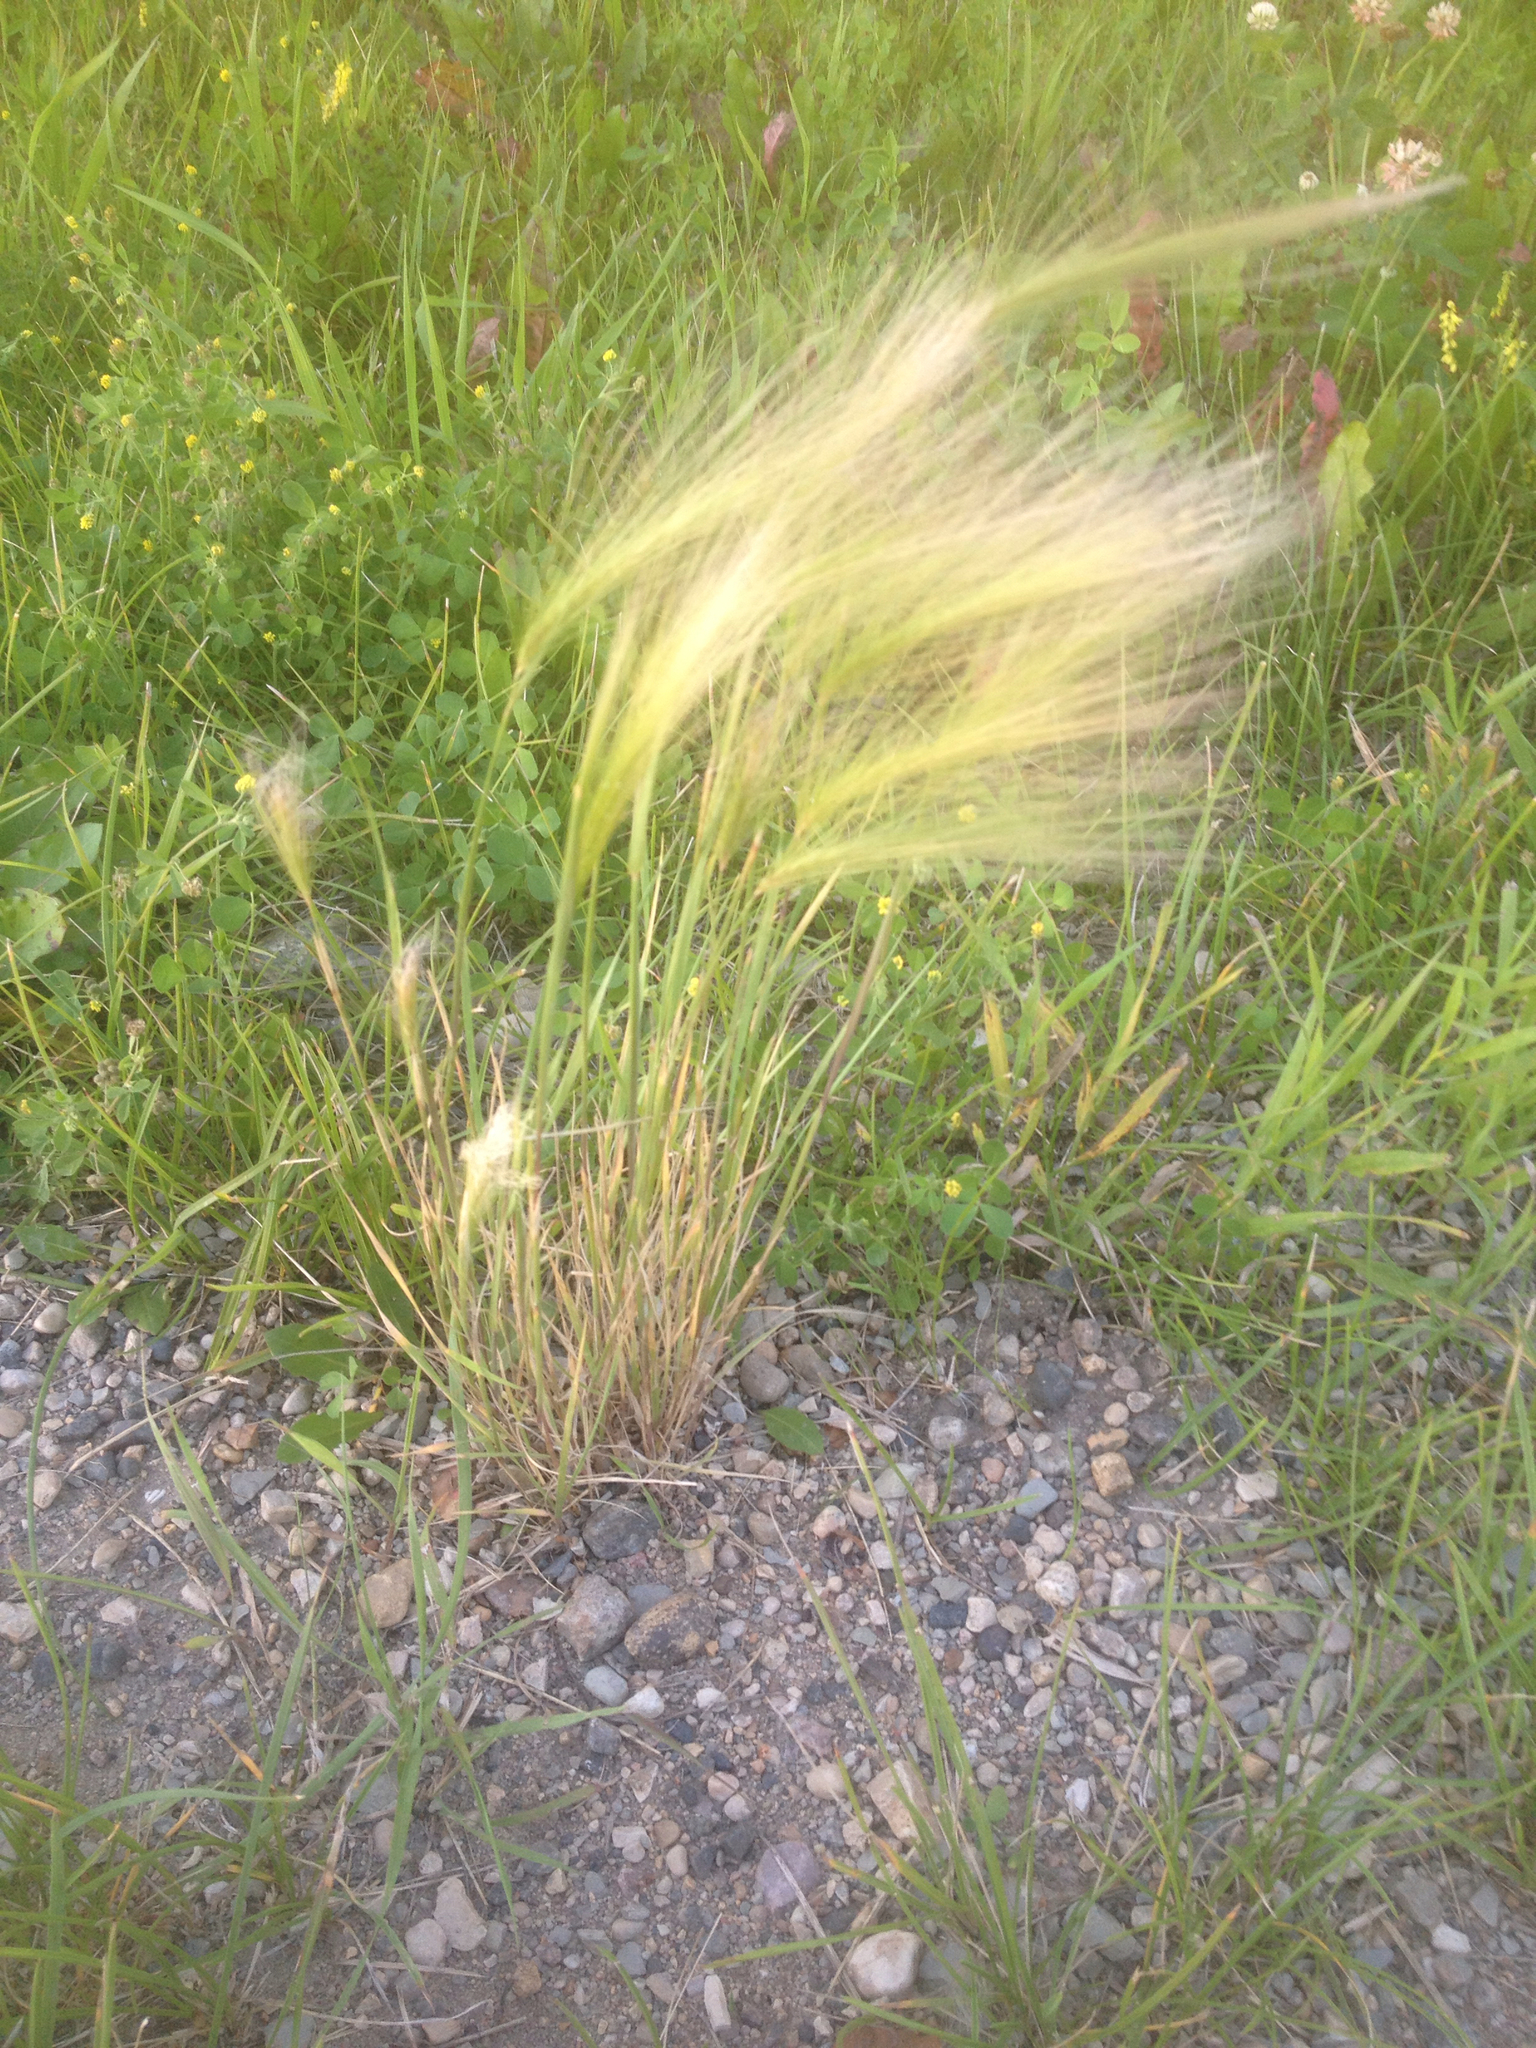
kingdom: Plantae
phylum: Tracheophyta
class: Liliopsida
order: Poales
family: Poaceae
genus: Hordeum
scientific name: Hordeum jubatum
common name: Foxtail barley
